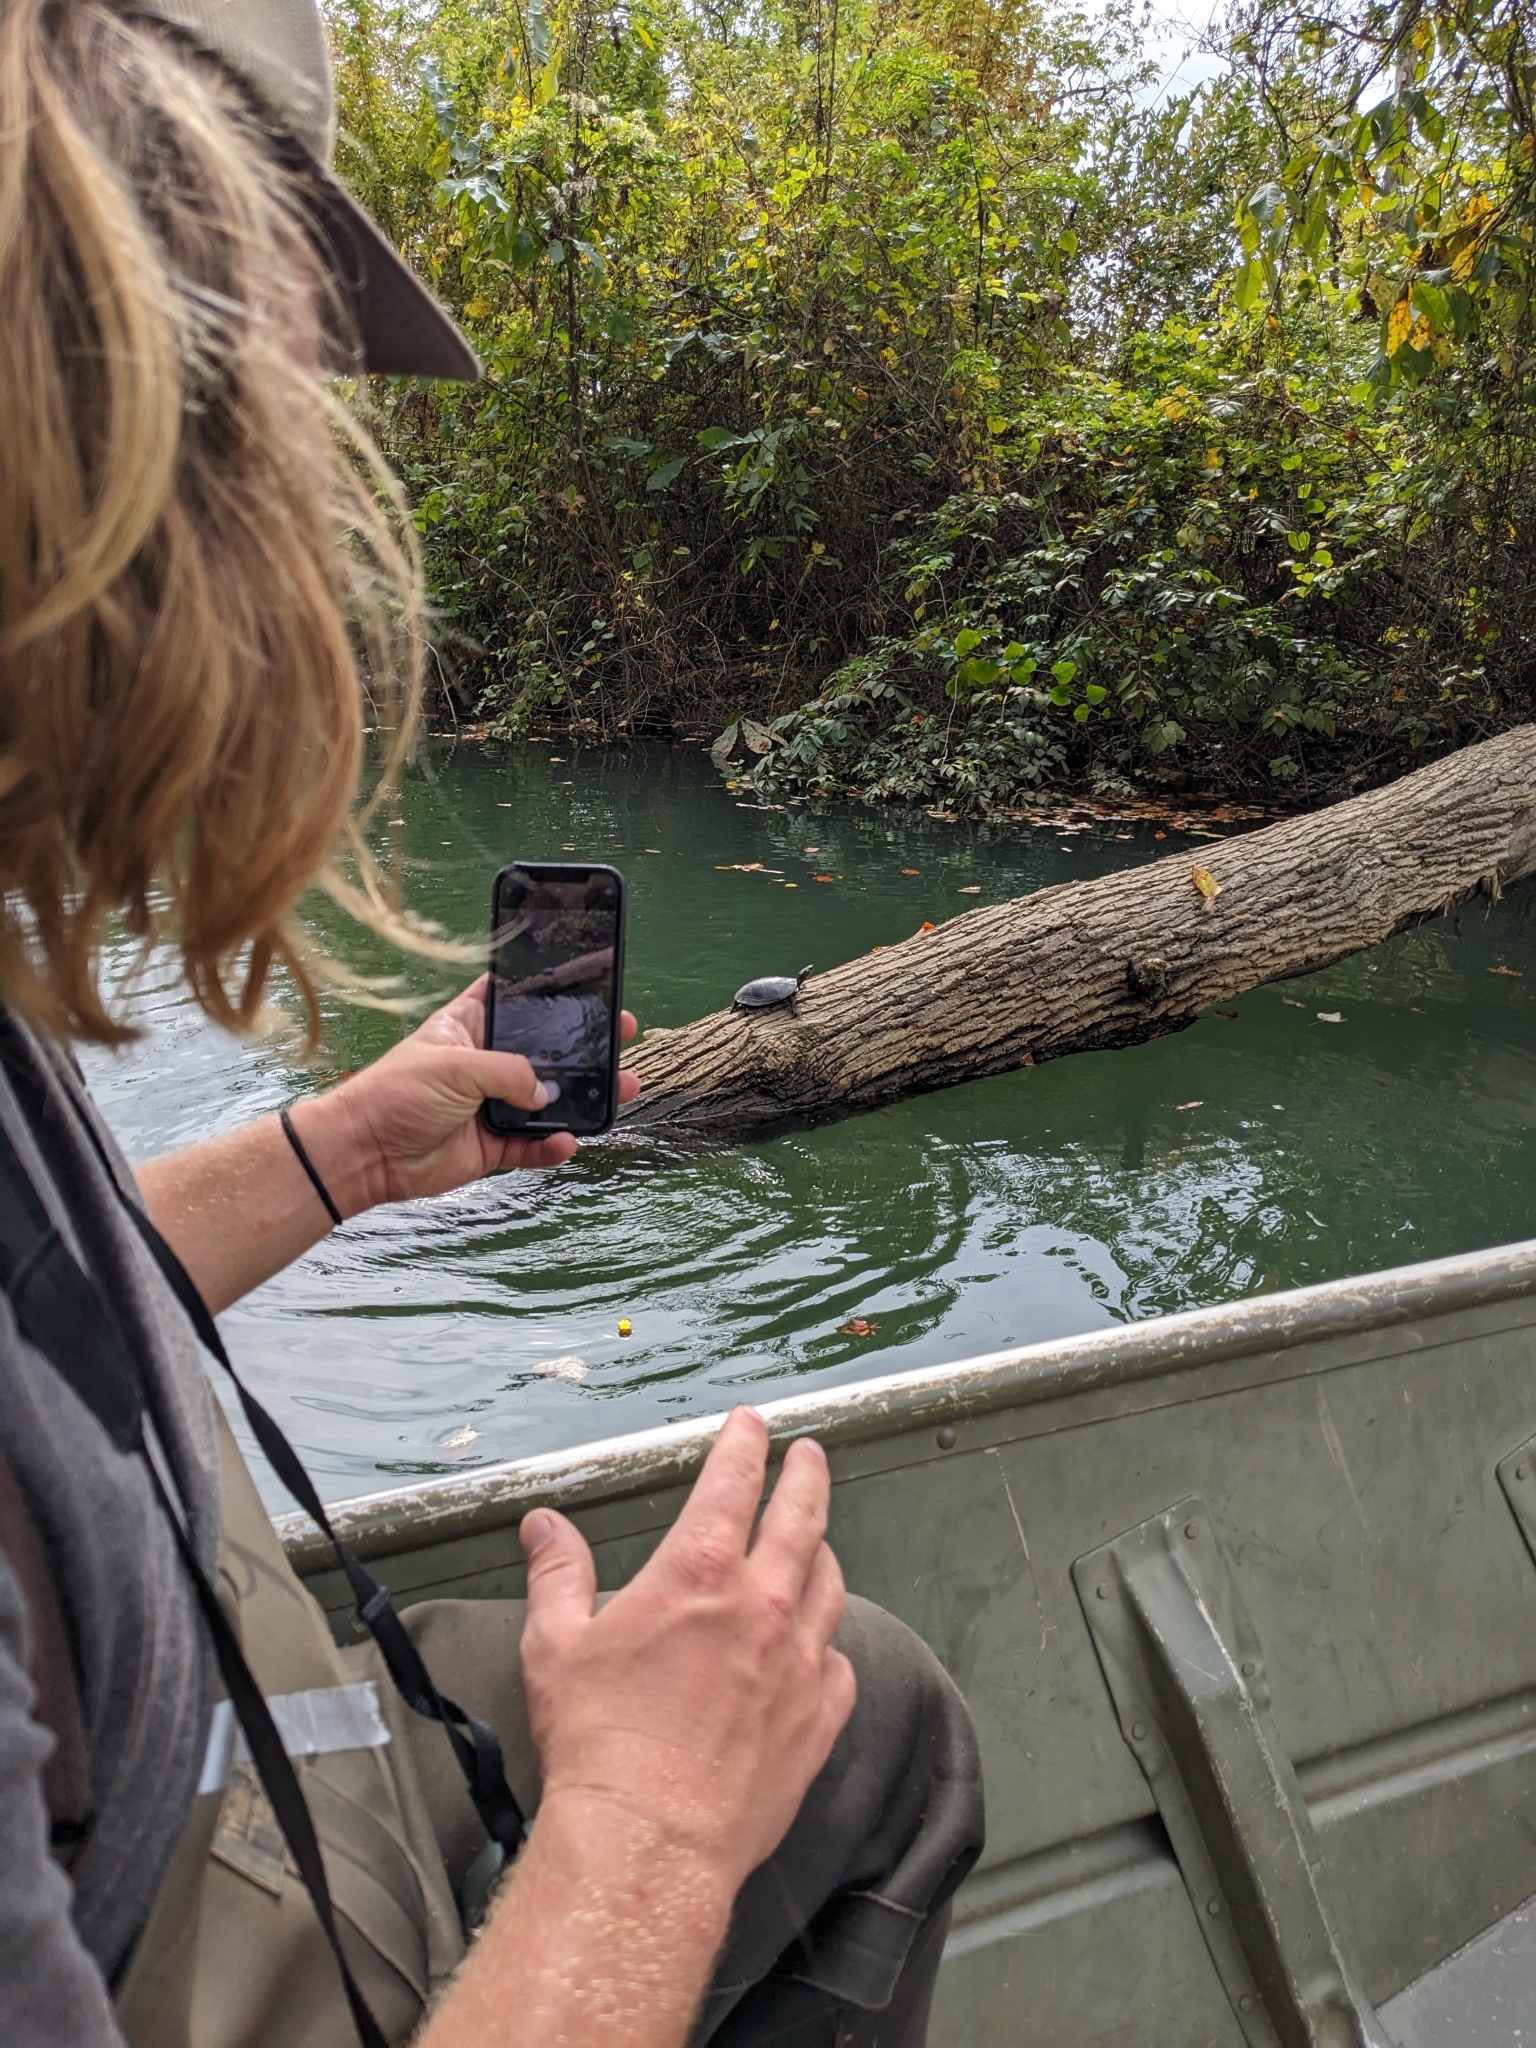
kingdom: Animalia
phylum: Chordata
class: Testudines
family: Emydidae
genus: Chrysemys
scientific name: Chrysemys picta
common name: Painted turtle
